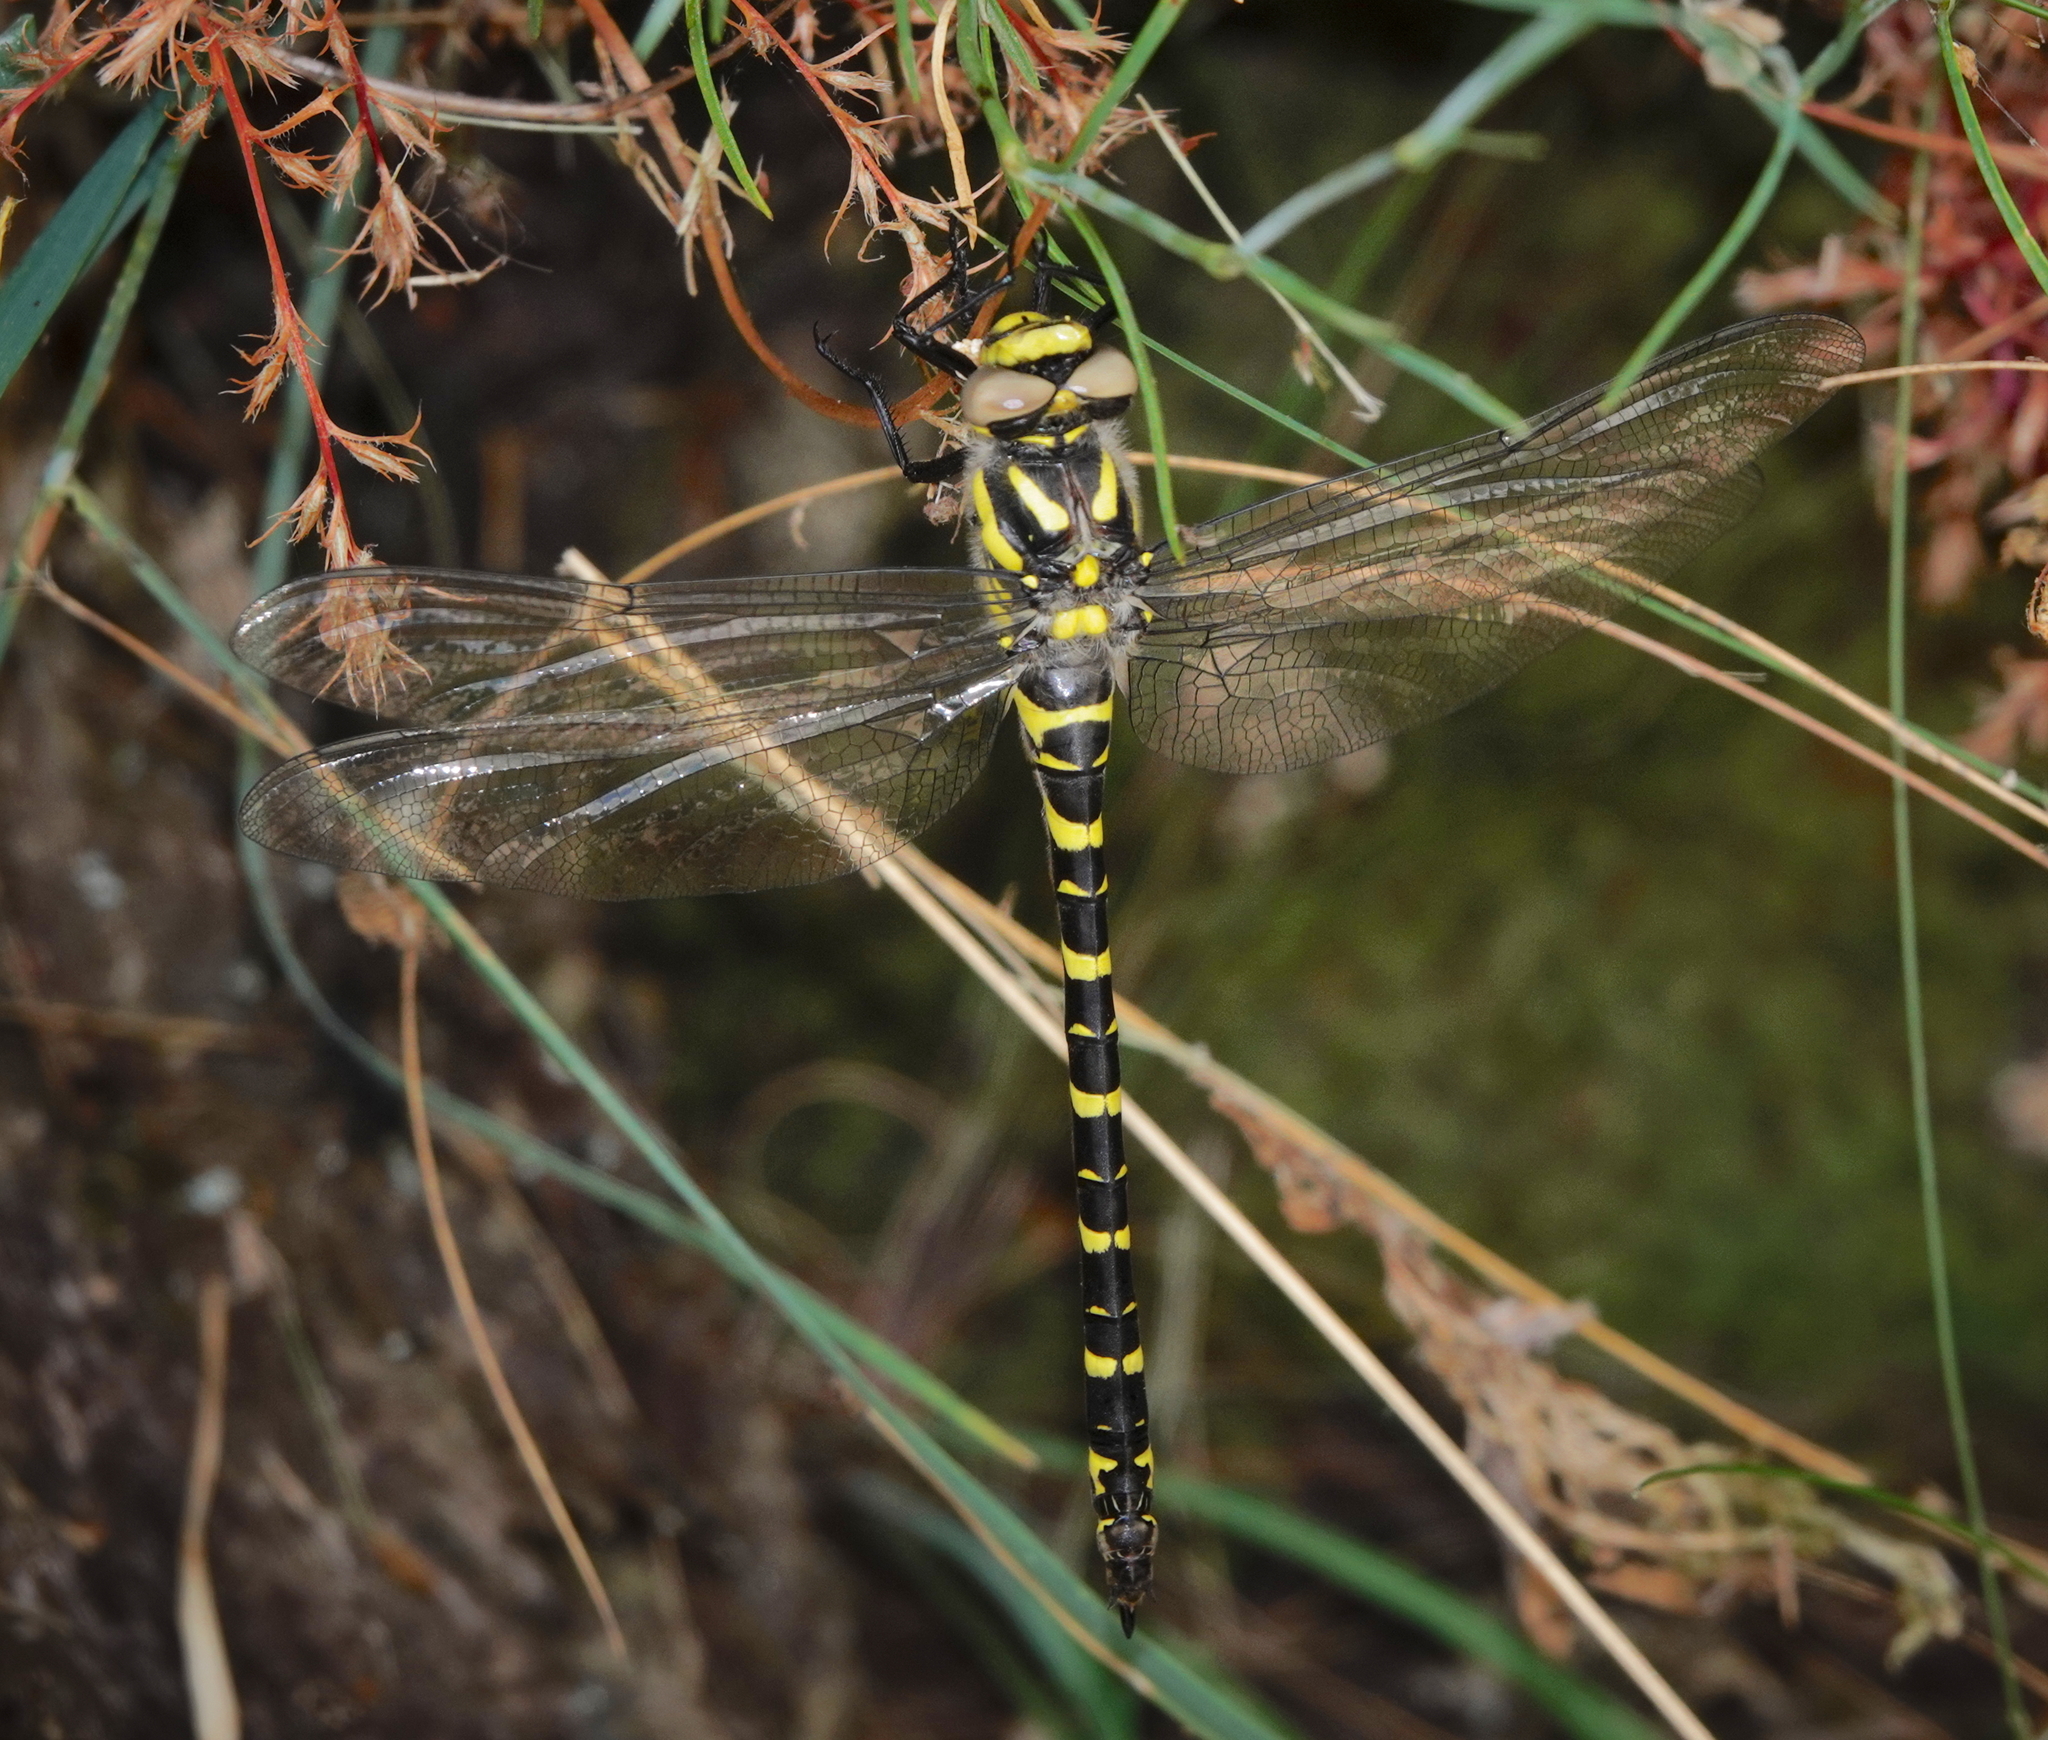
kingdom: Animalia
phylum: Arthropoda
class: Insecta
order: Odonata
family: Cordulegastridae
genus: Cordulegaster
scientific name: Cordulegaster boltonii
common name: Golden-ringed dragonfly
